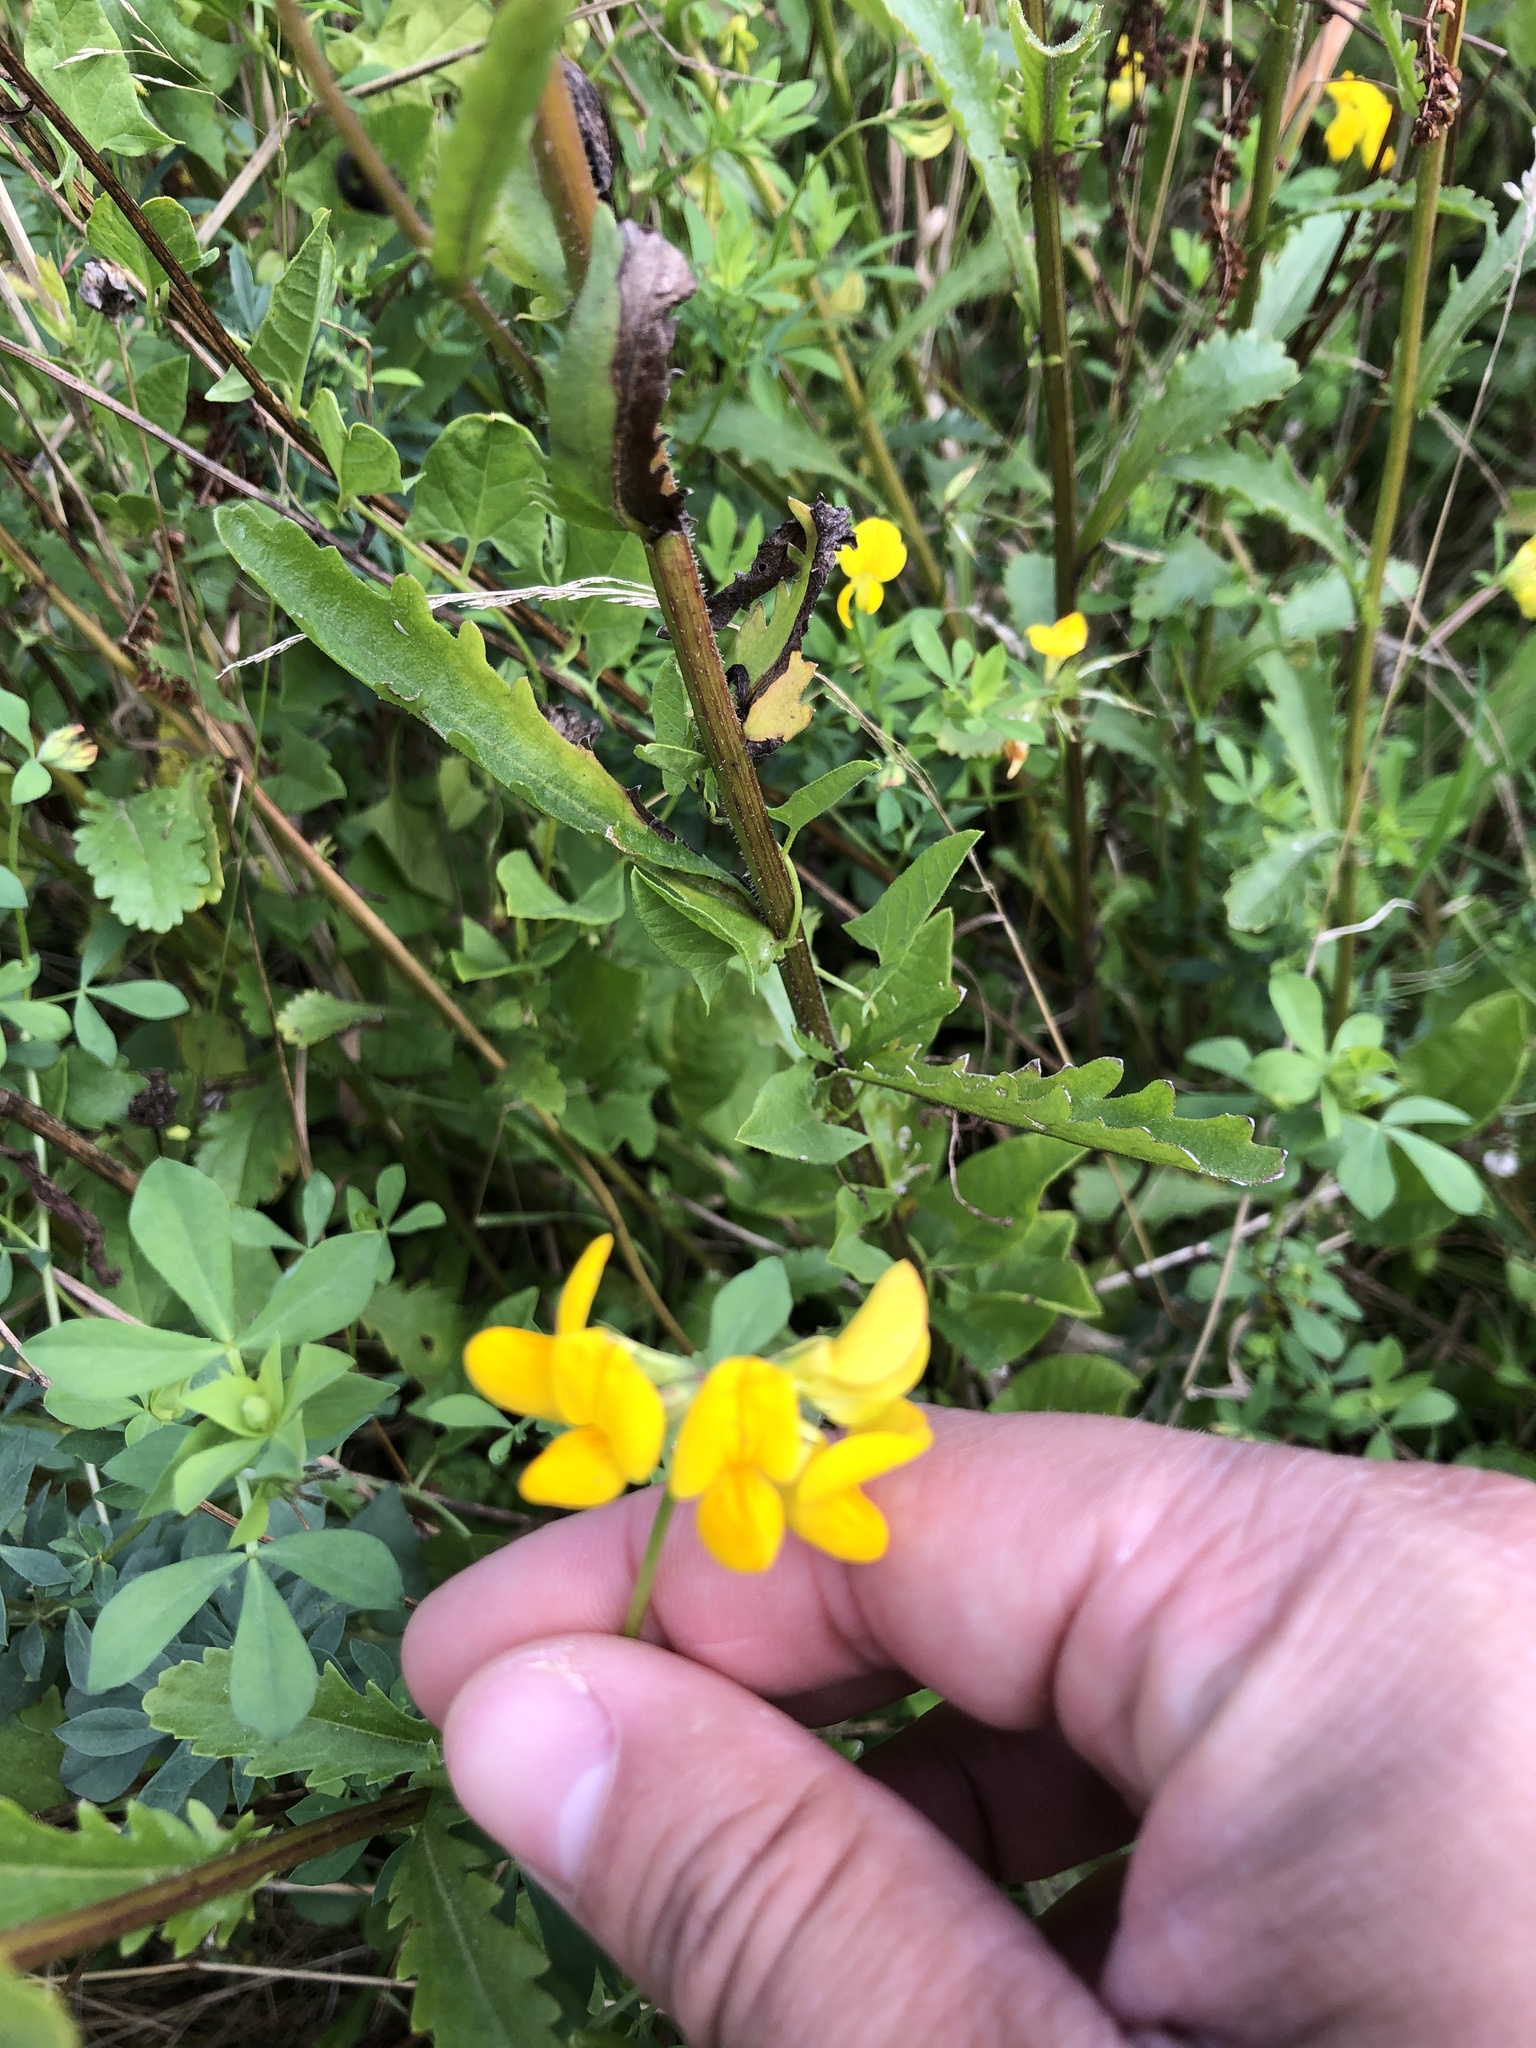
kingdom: Plantae
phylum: Tracheophyta
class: Magnoliopsida
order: Fabales
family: Fabaceae
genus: Lotus
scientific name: Lotus corniculatus
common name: Common bird's-foot-trefoil
